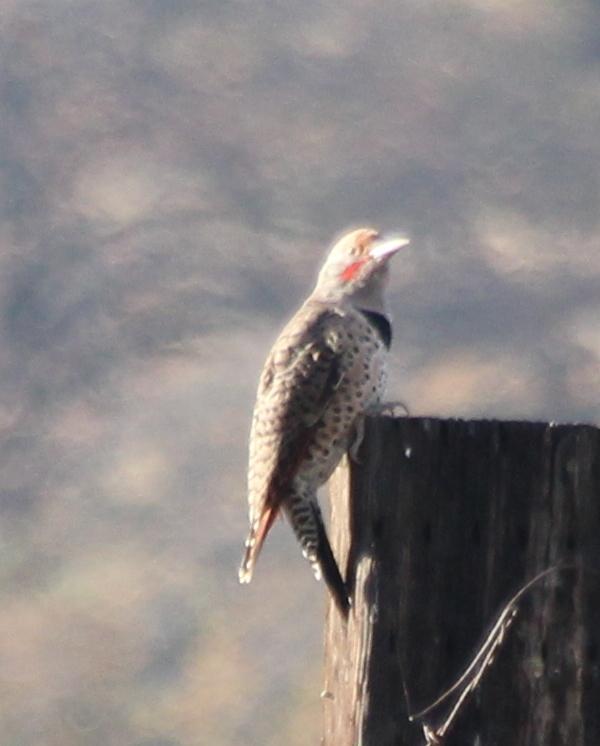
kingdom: Animalia
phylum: Chordata
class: Aves
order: Piciformes
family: Picidae
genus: Colaptes
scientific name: Colaptes auratus
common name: Northern flicker
